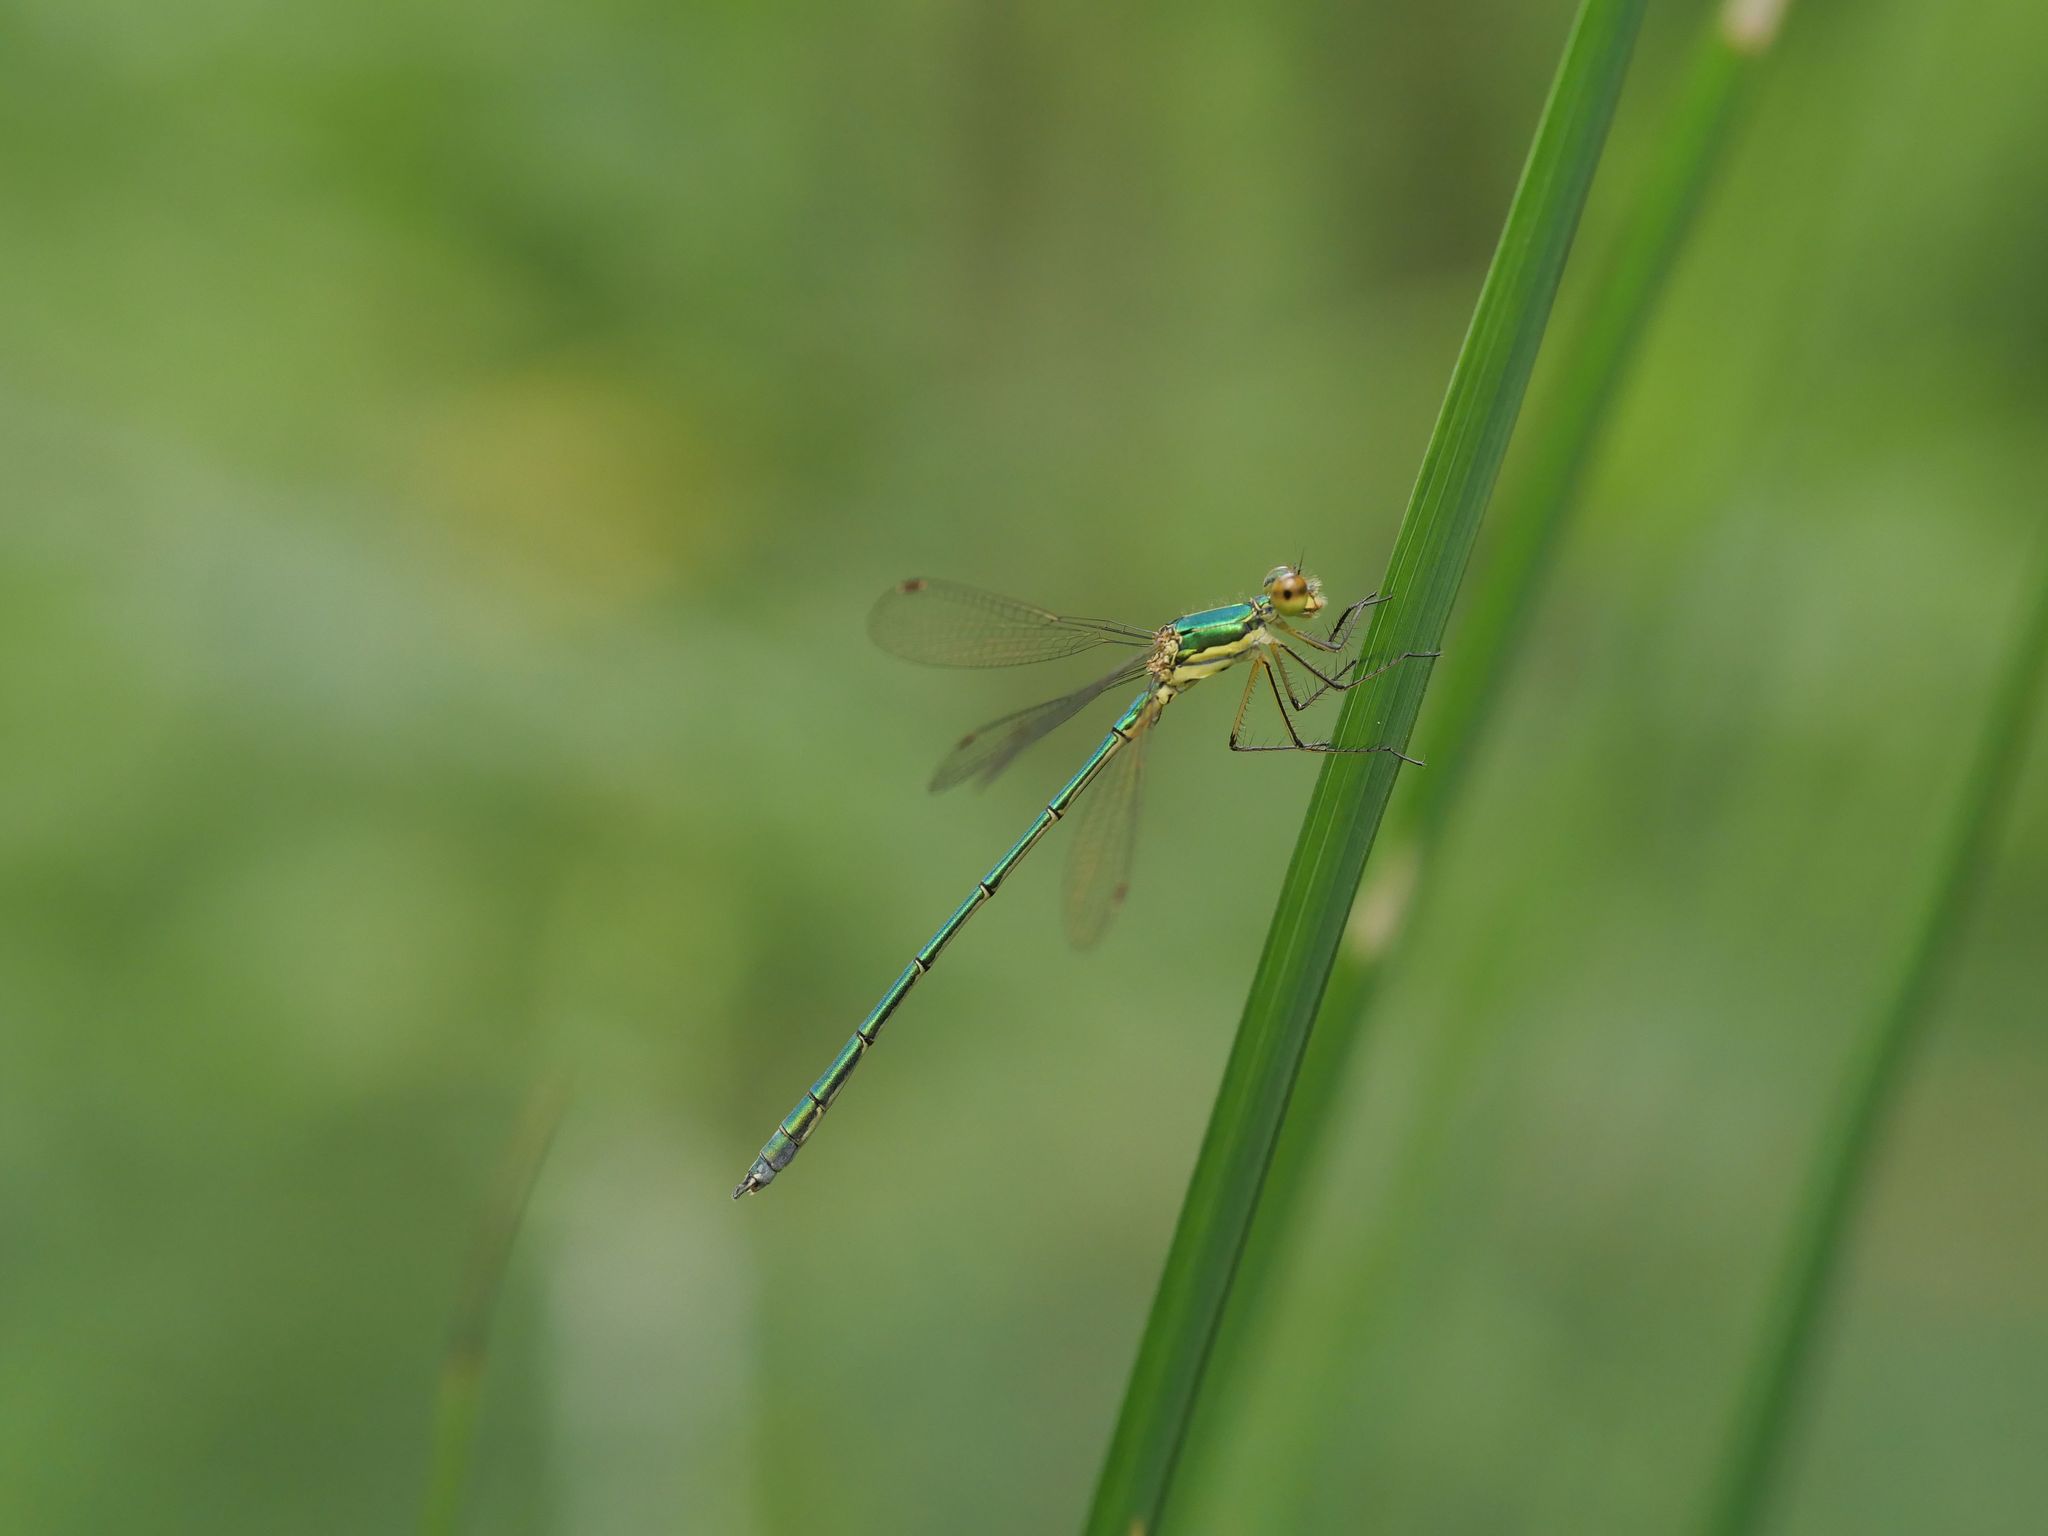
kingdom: Animalia
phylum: Arthropoda
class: Insecta
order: Odonata
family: Lestidae
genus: Lestes
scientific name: Lestes virens
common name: Small emerald spreadwing
